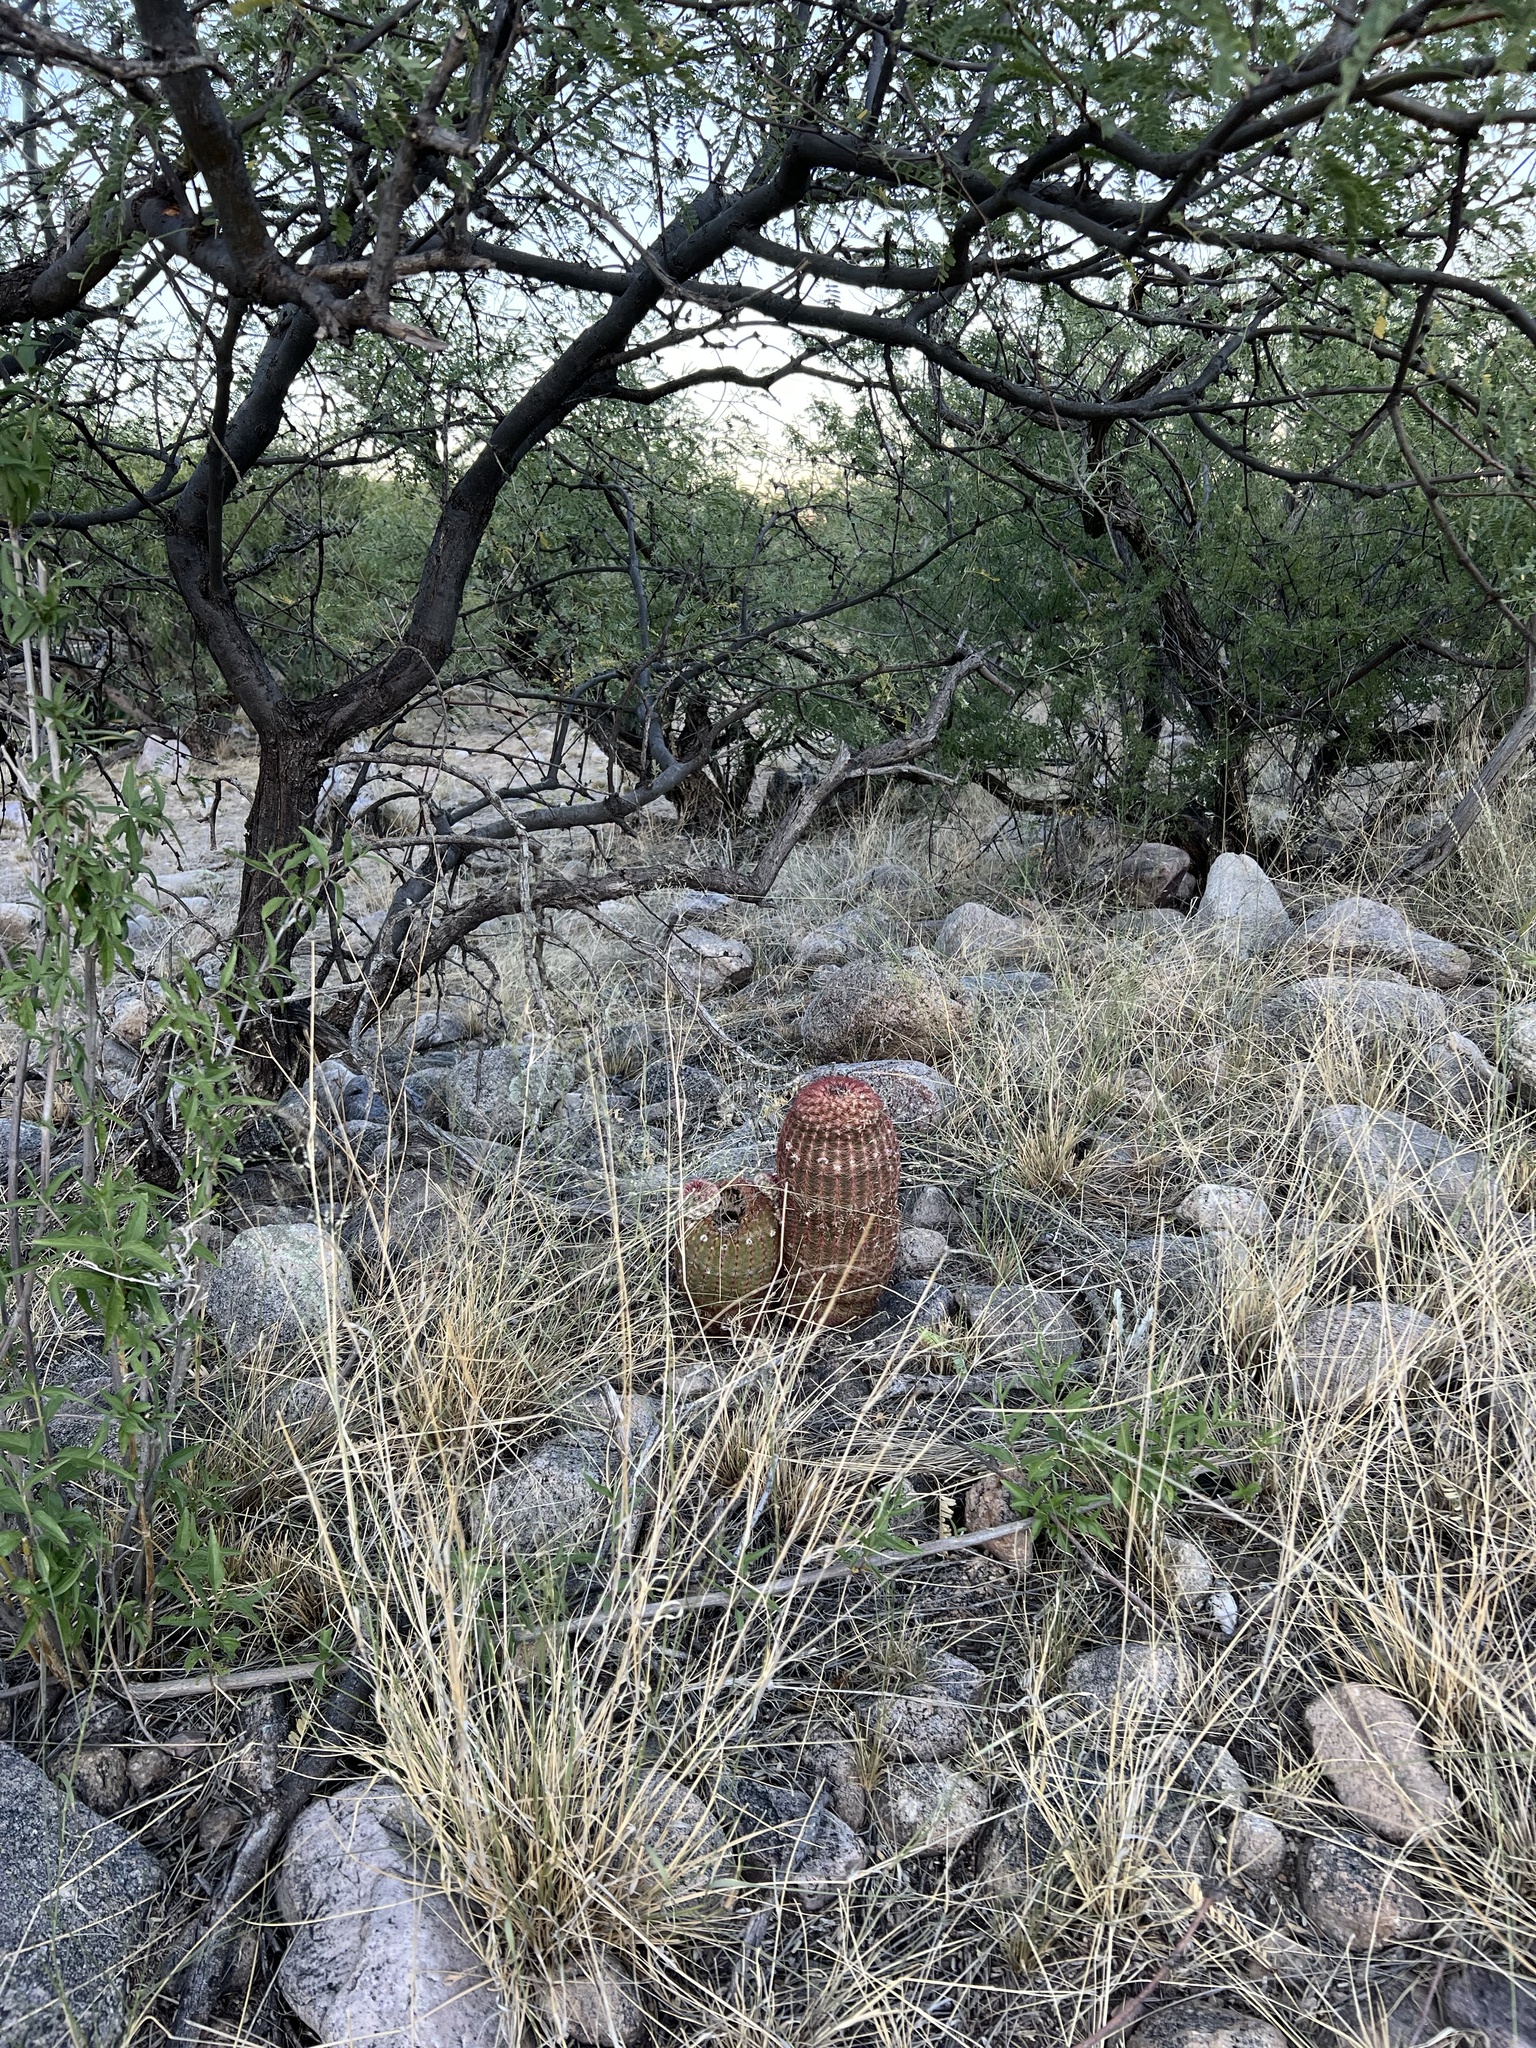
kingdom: Plantae
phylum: Tracheophyta
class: Magnoliopsida
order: Caryophyllales
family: Cactaceae
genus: Echinocereus
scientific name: Echinocereus rigidissimus
